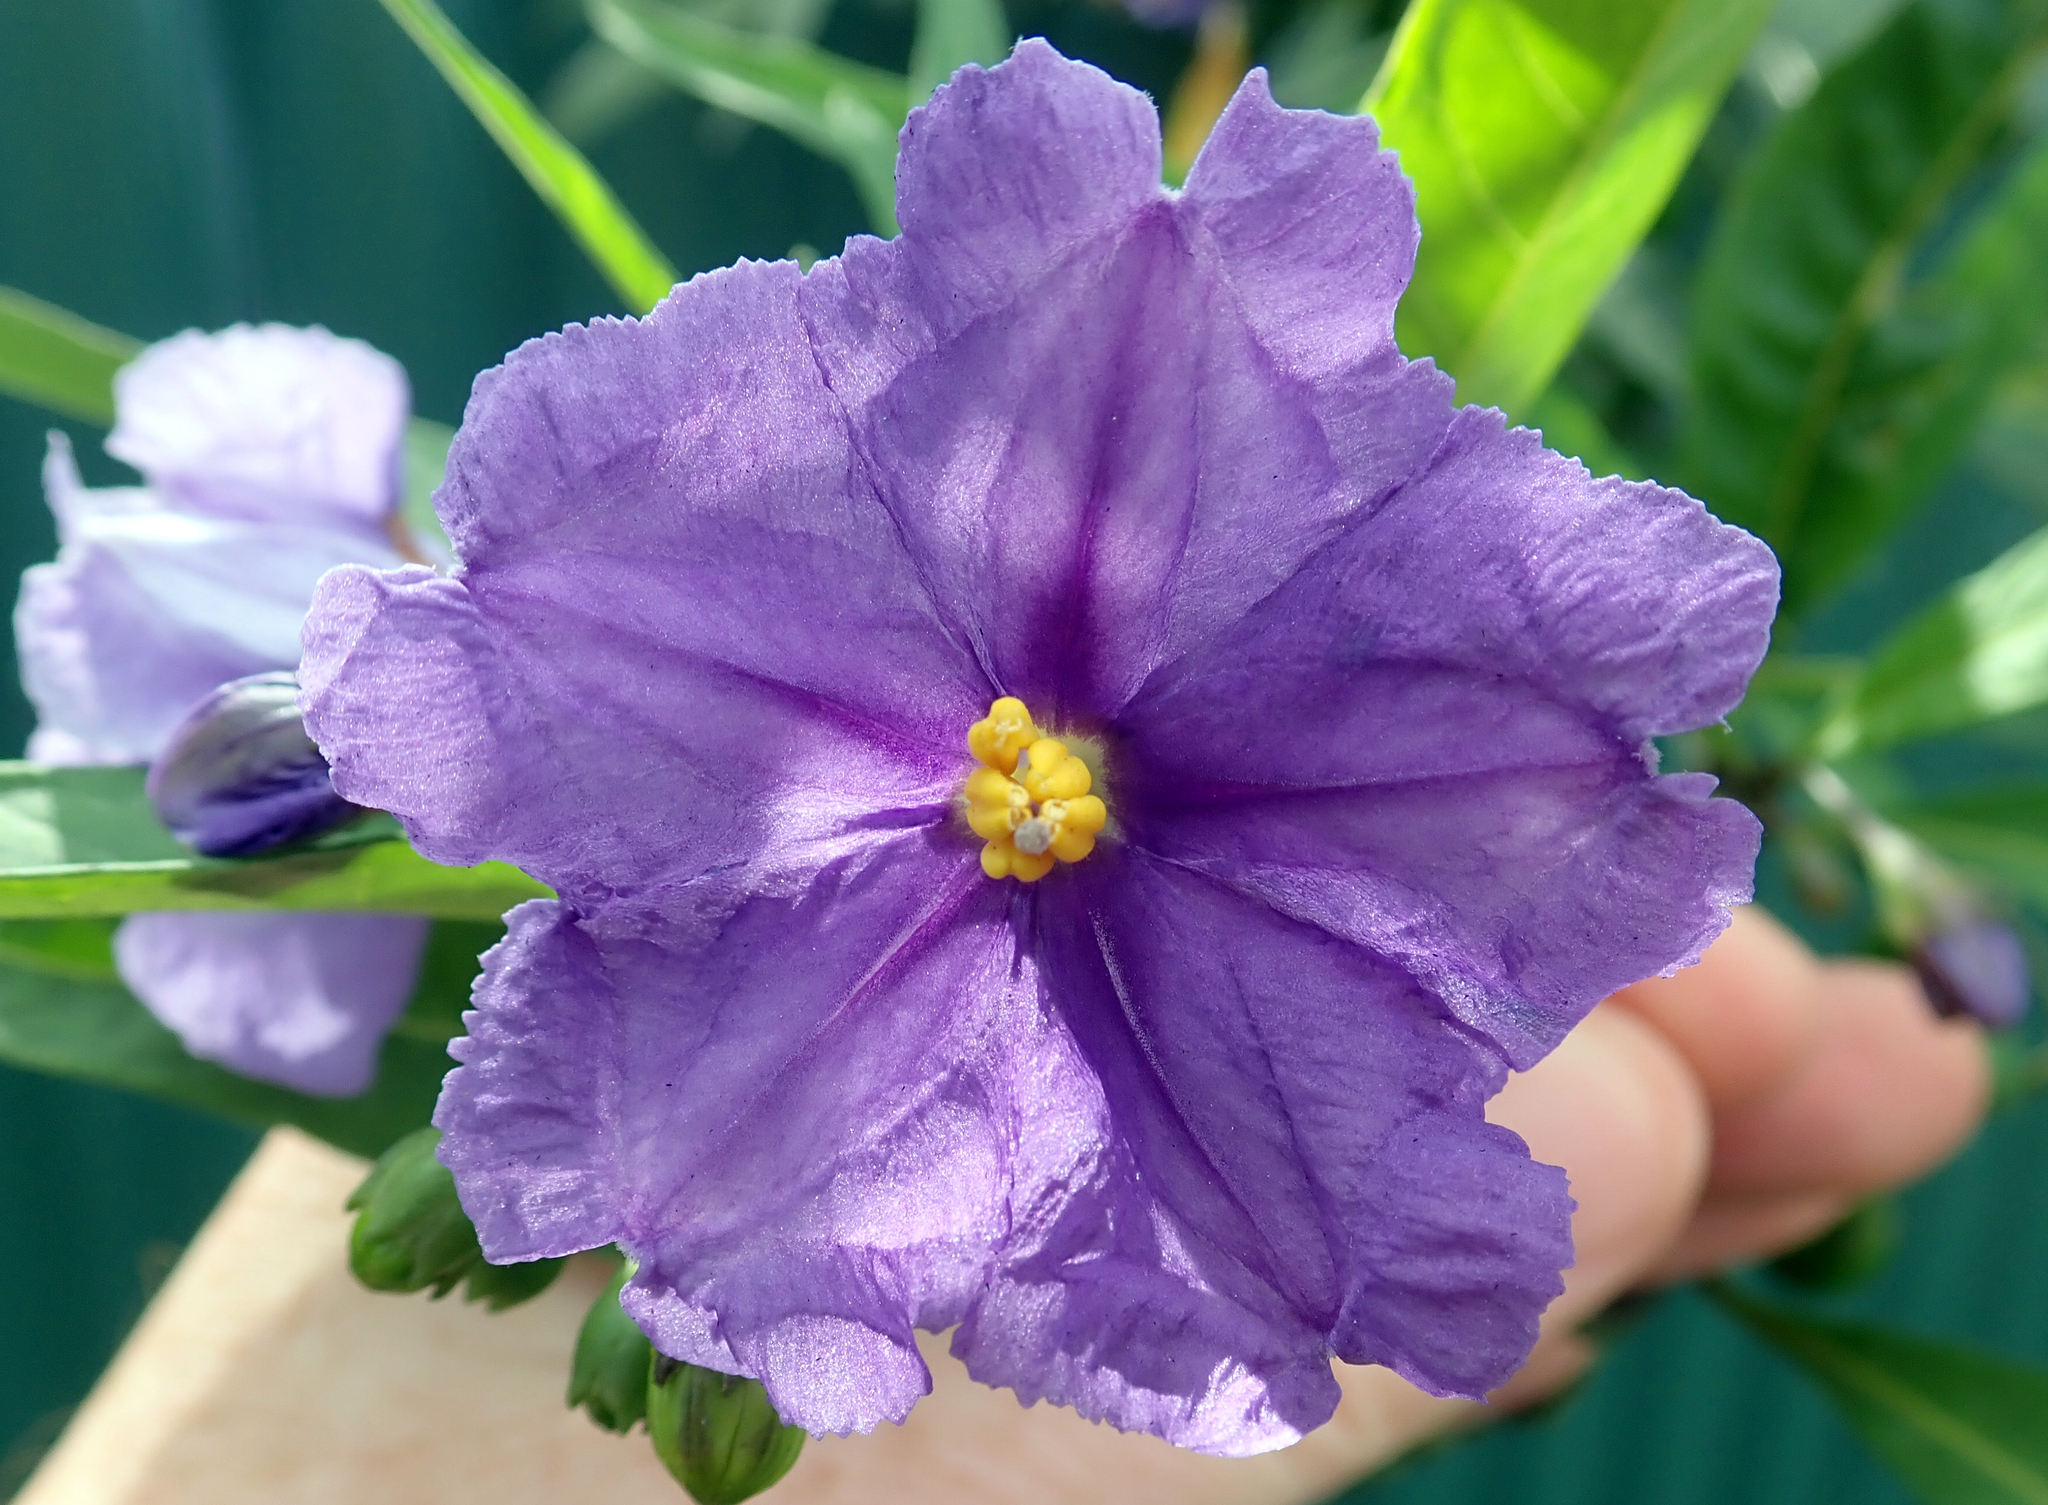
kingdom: Plantae
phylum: Tracheophyta
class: Magnoliopsida
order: Solanales
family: Solanaceae
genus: Solanum
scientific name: Solanum laciniatum
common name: Kangaroo-apple
